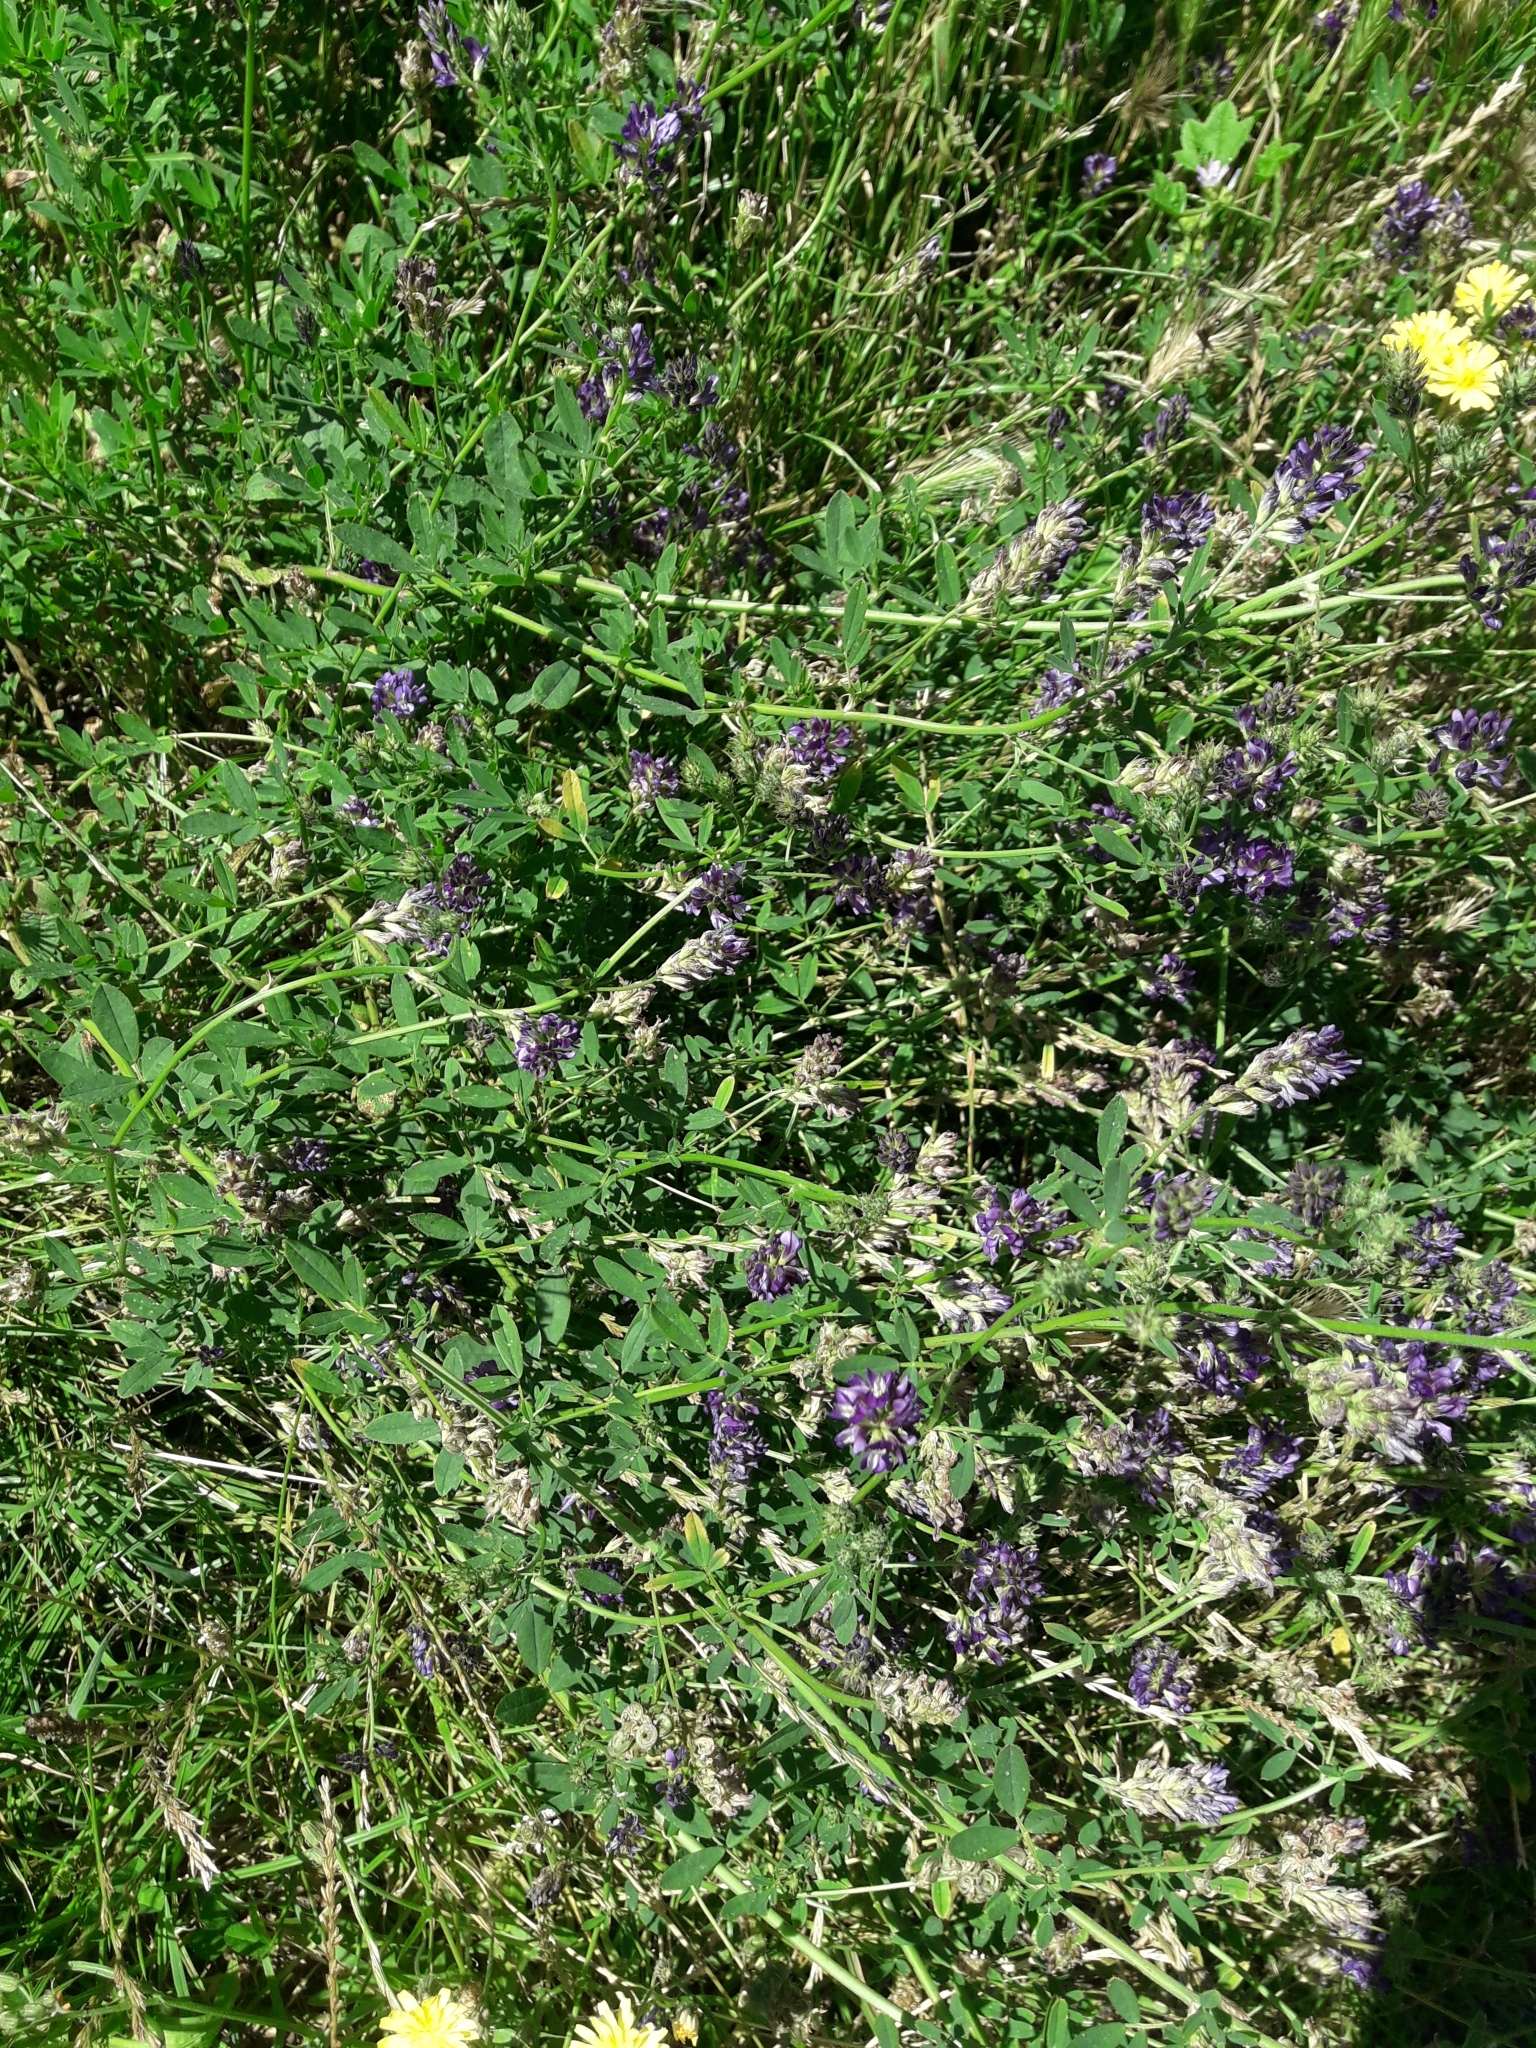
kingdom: Plantae
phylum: Tracheophyta
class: Magnoliopsida
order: Fabales
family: Fabaceae
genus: Medicago
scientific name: Medicago sativa
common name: Alfalfa
